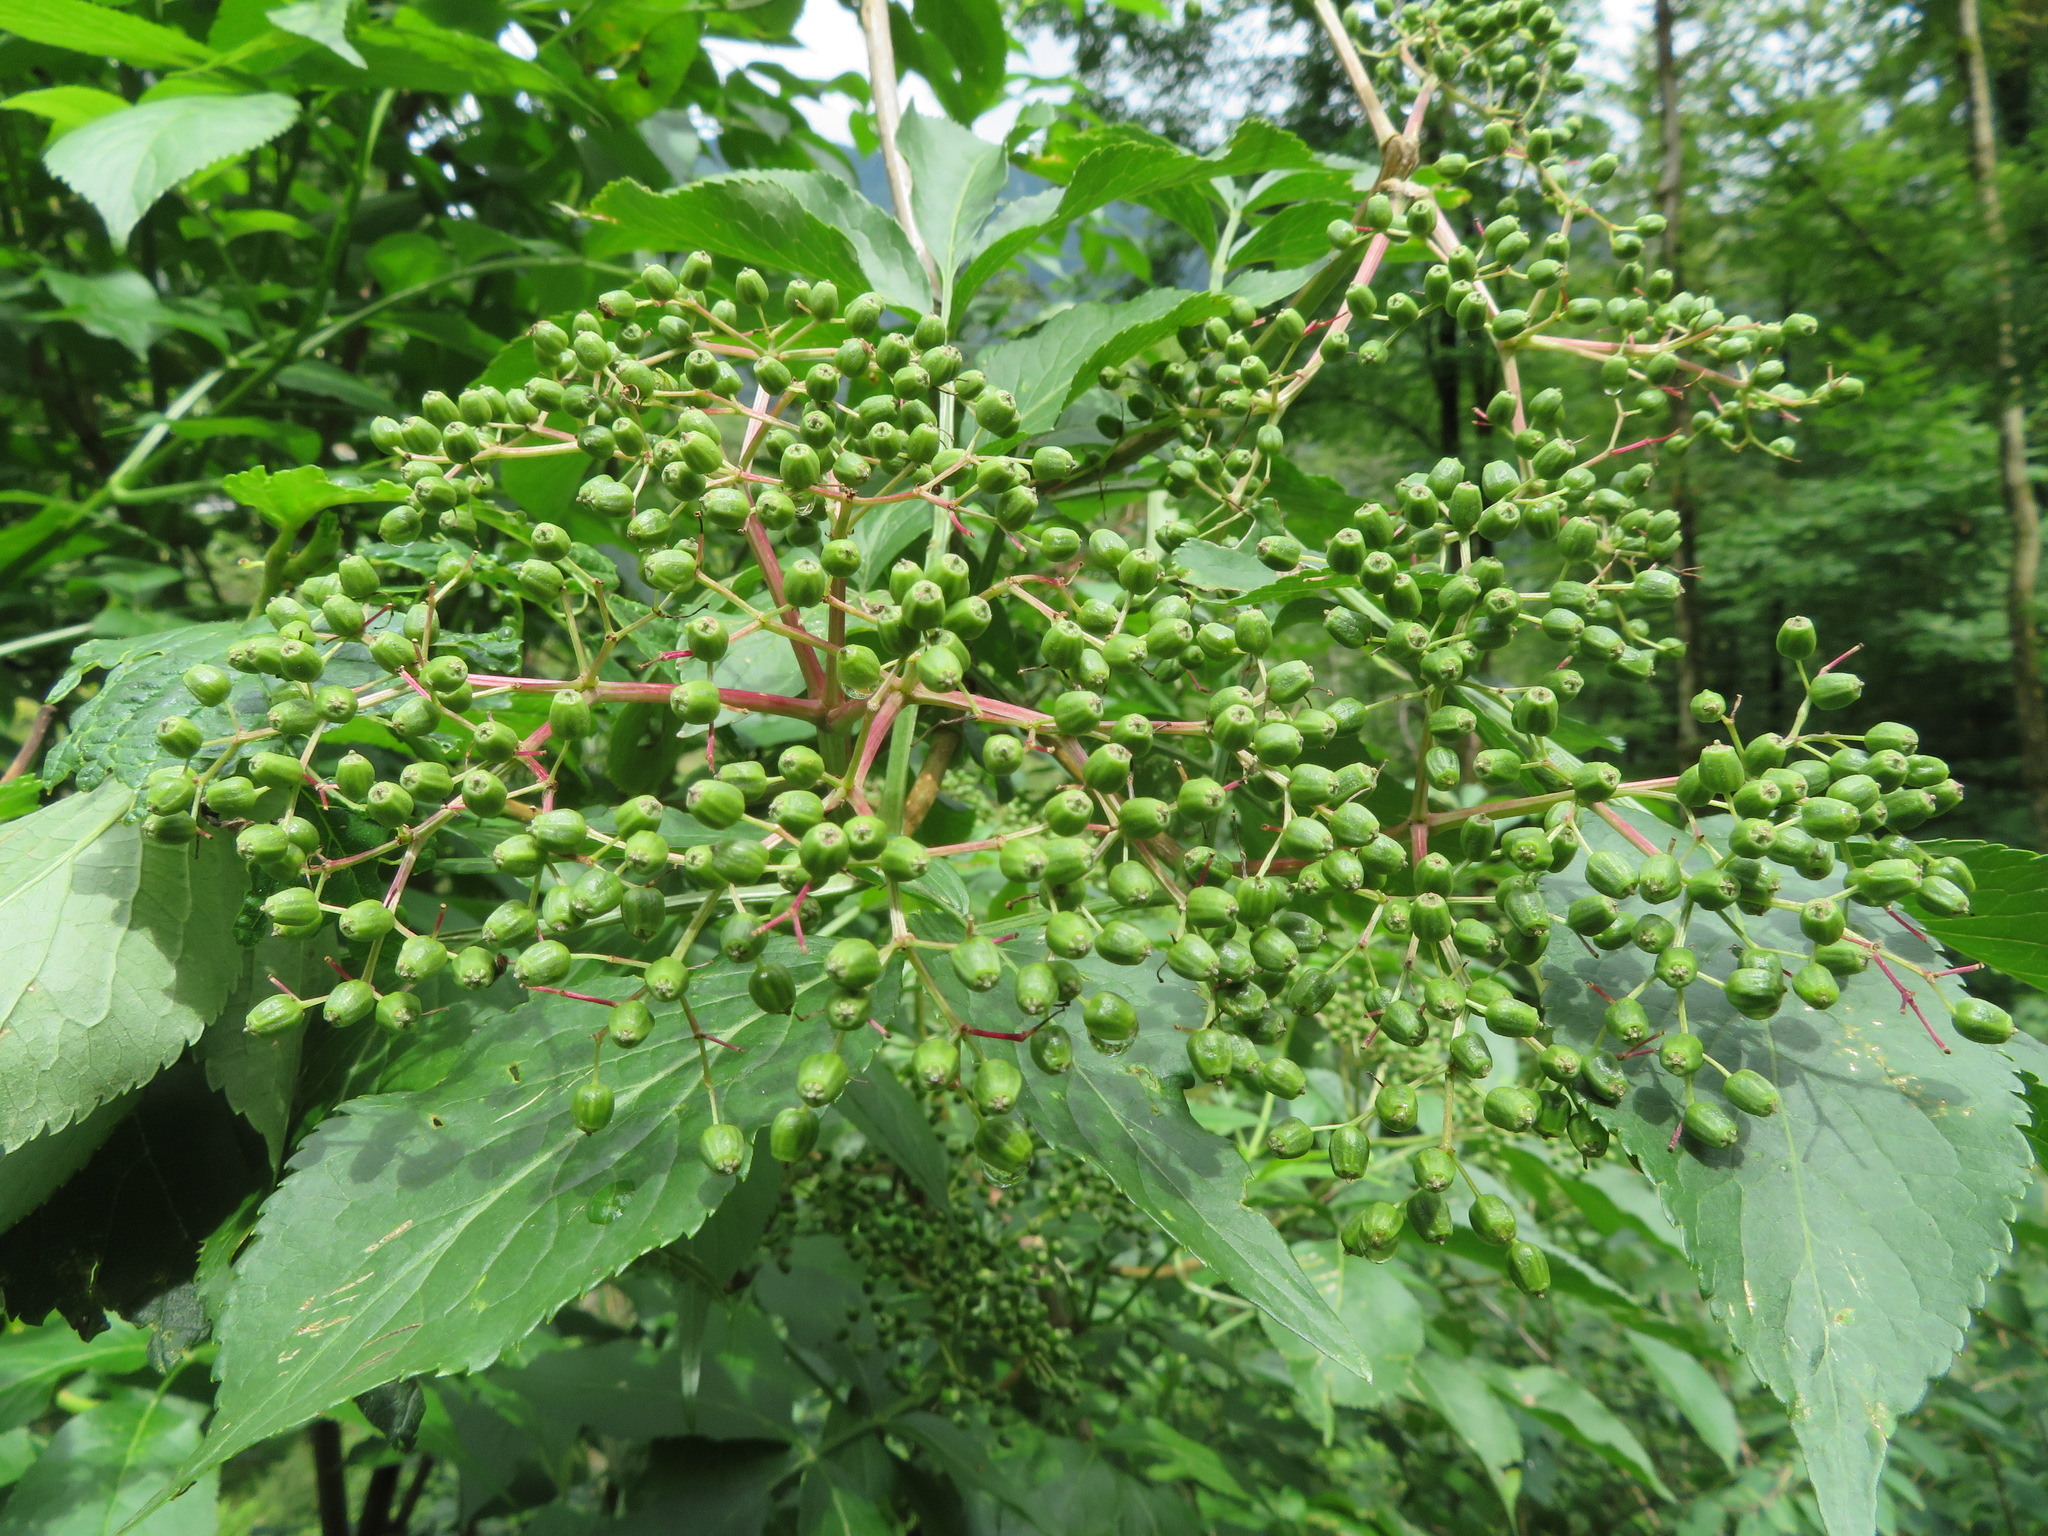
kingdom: Plantae
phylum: Tracheophyta
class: Magnoliopsida
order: Dipsacales
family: Viburnaceae
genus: Sambucus
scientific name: Sambucus nigra
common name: Elder
